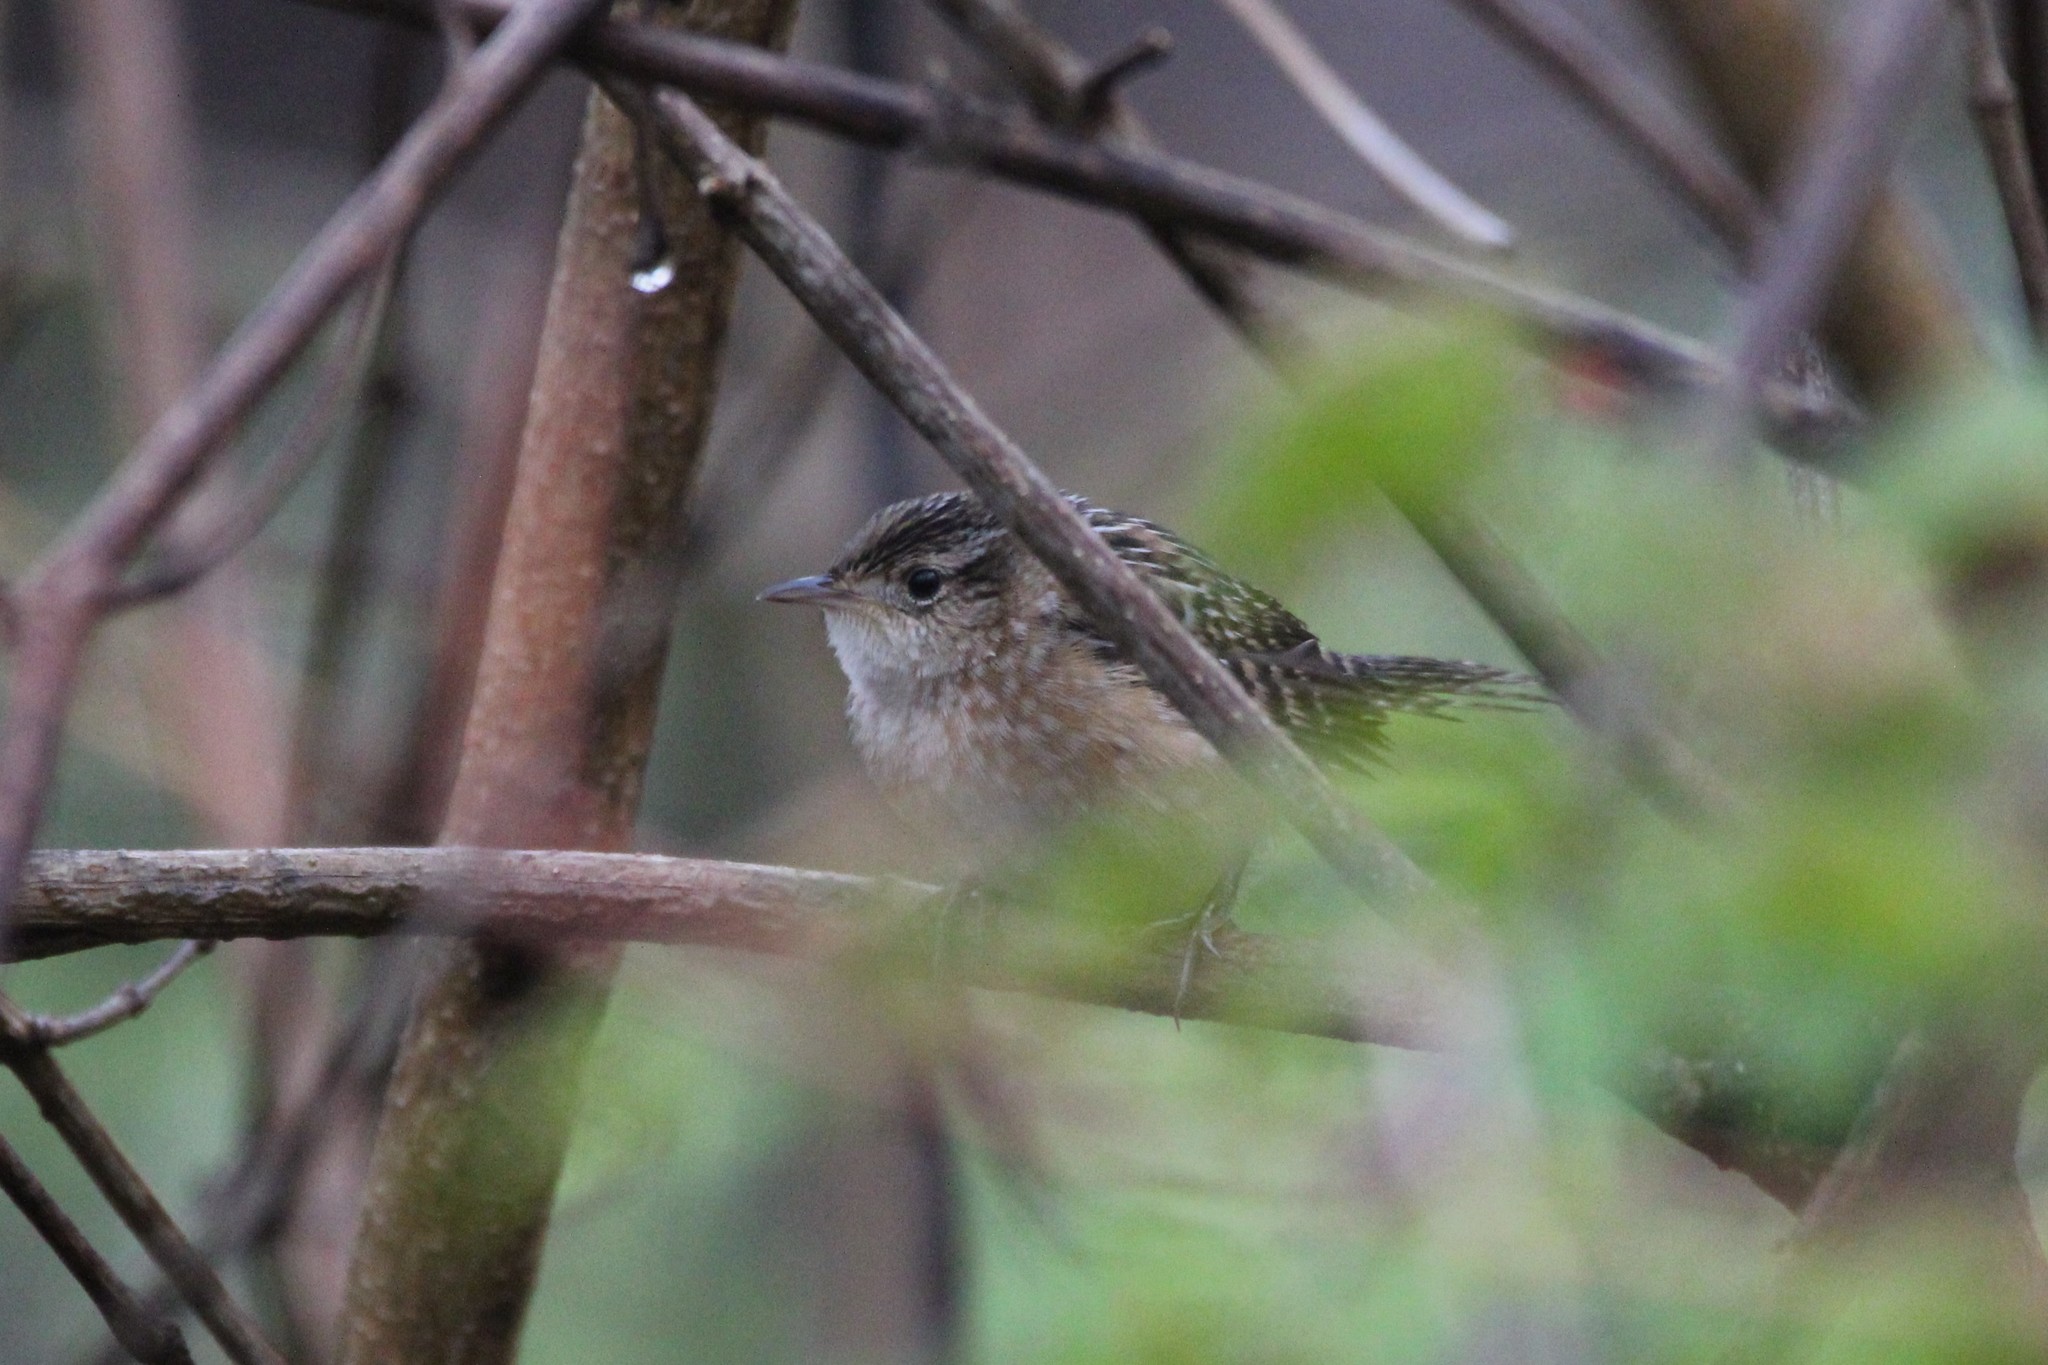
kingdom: Animalia
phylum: Chordata
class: Aves
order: Passeriformes
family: Troglodytidae
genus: Cistothorus
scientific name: Cistothorus platensis
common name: Sedge wren
